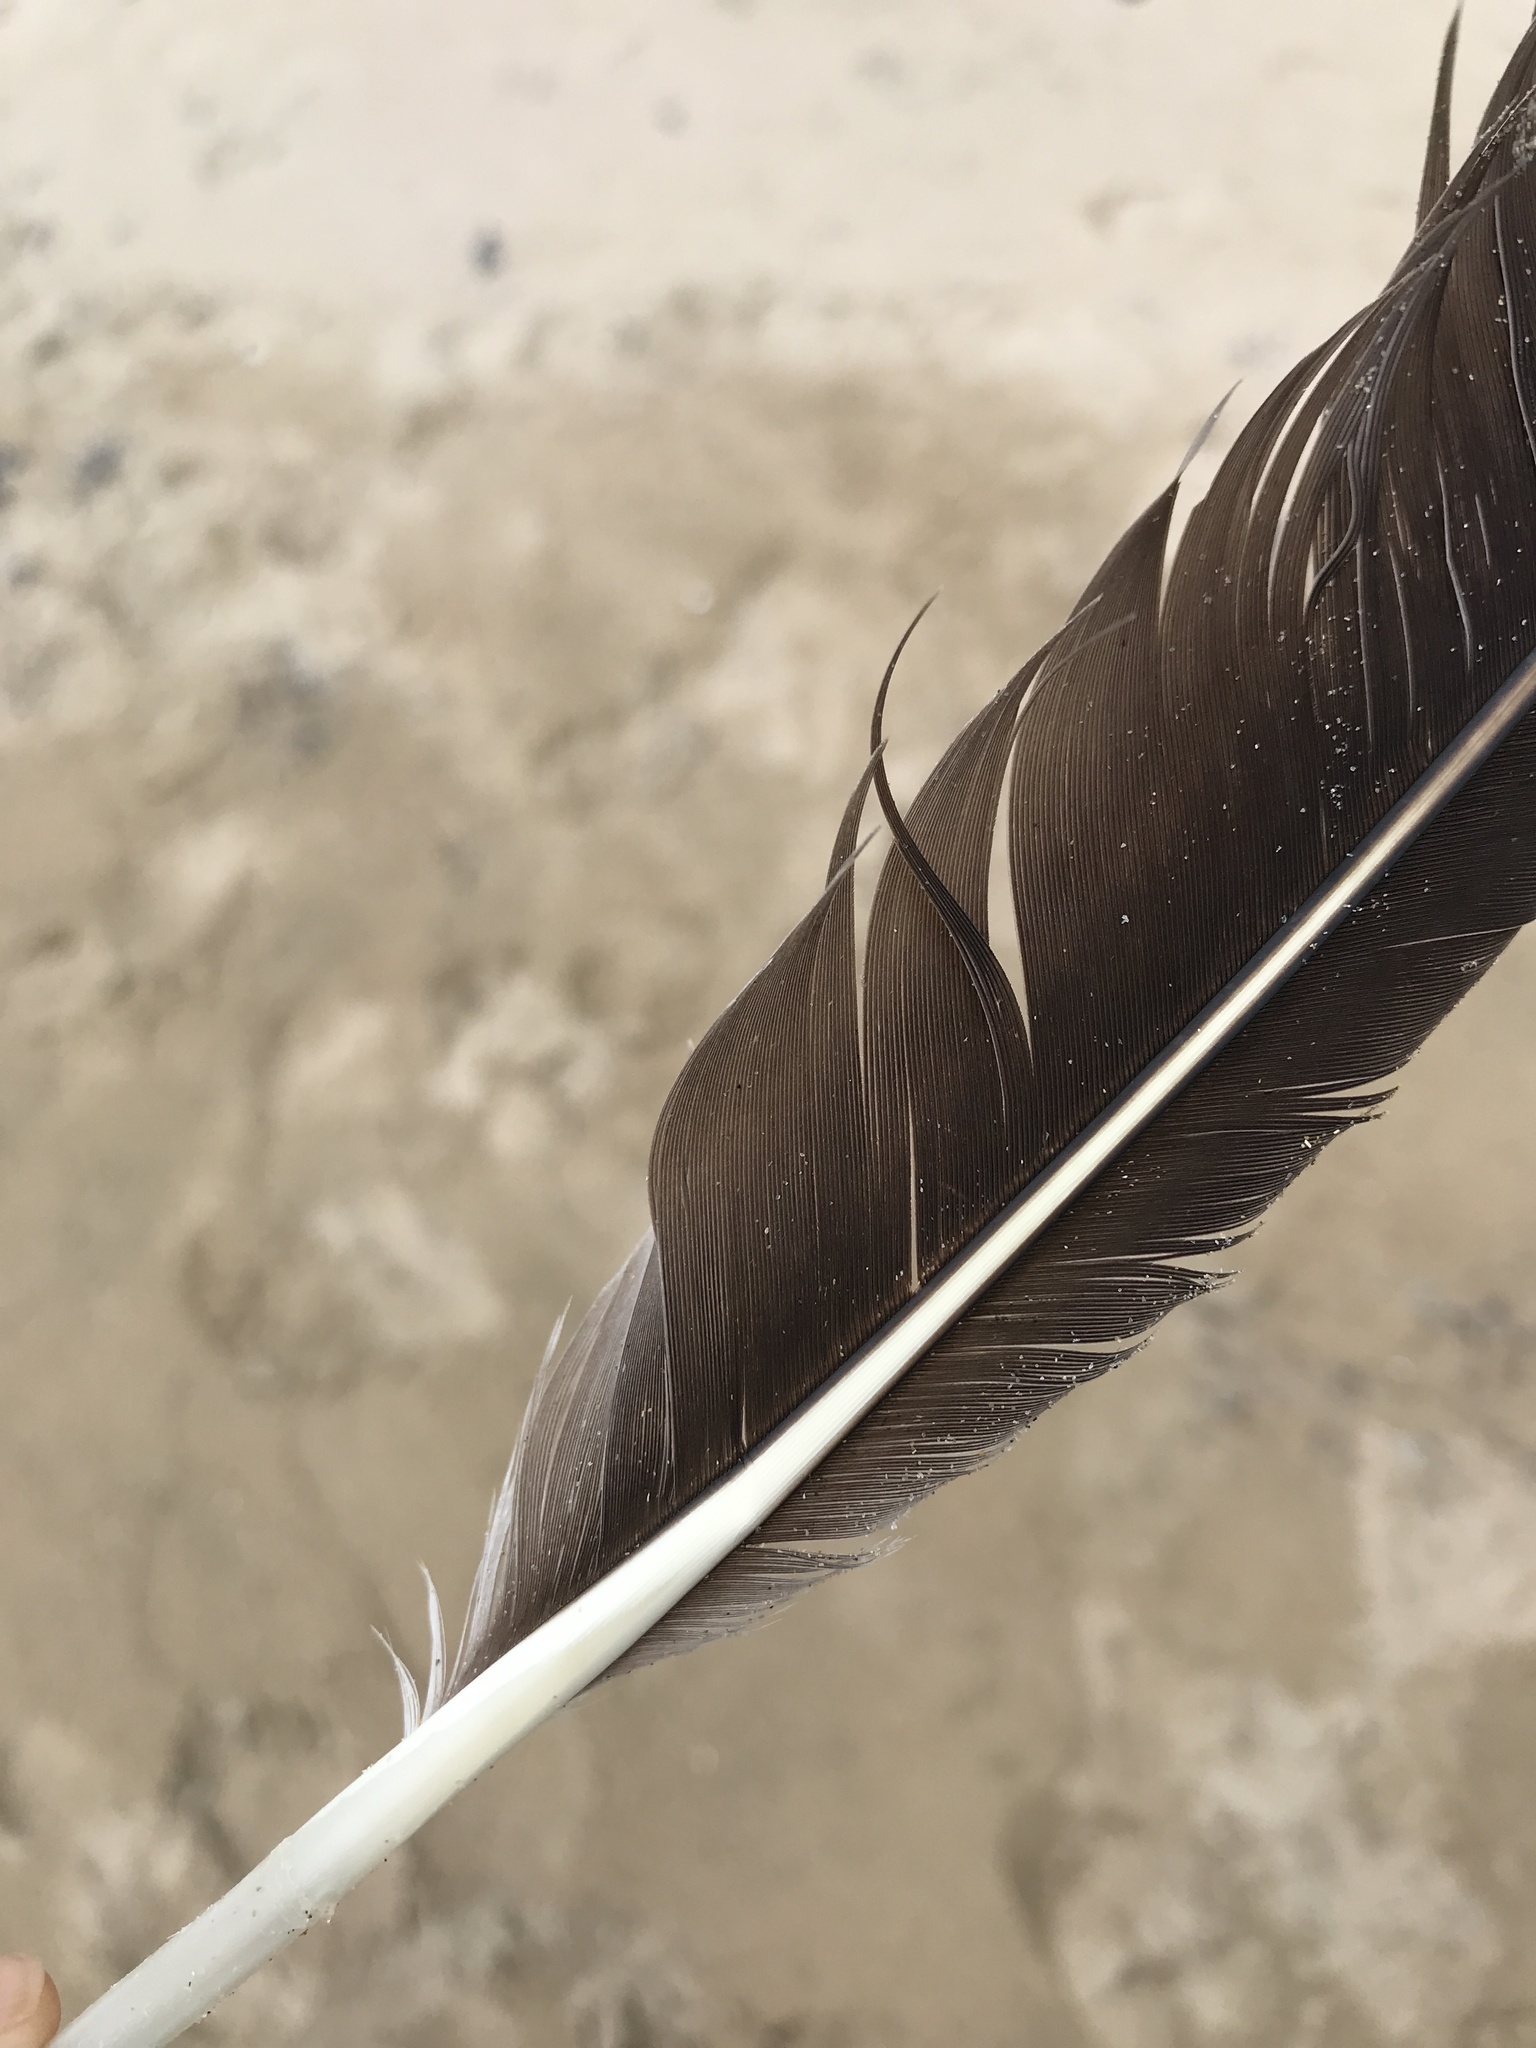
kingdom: Animalia
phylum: Chordata
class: Aves
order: Pelecaniformes
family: Pelecanidae
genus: Pelecanus
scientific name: Pelecanus occidentalis
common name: Brown pelican
